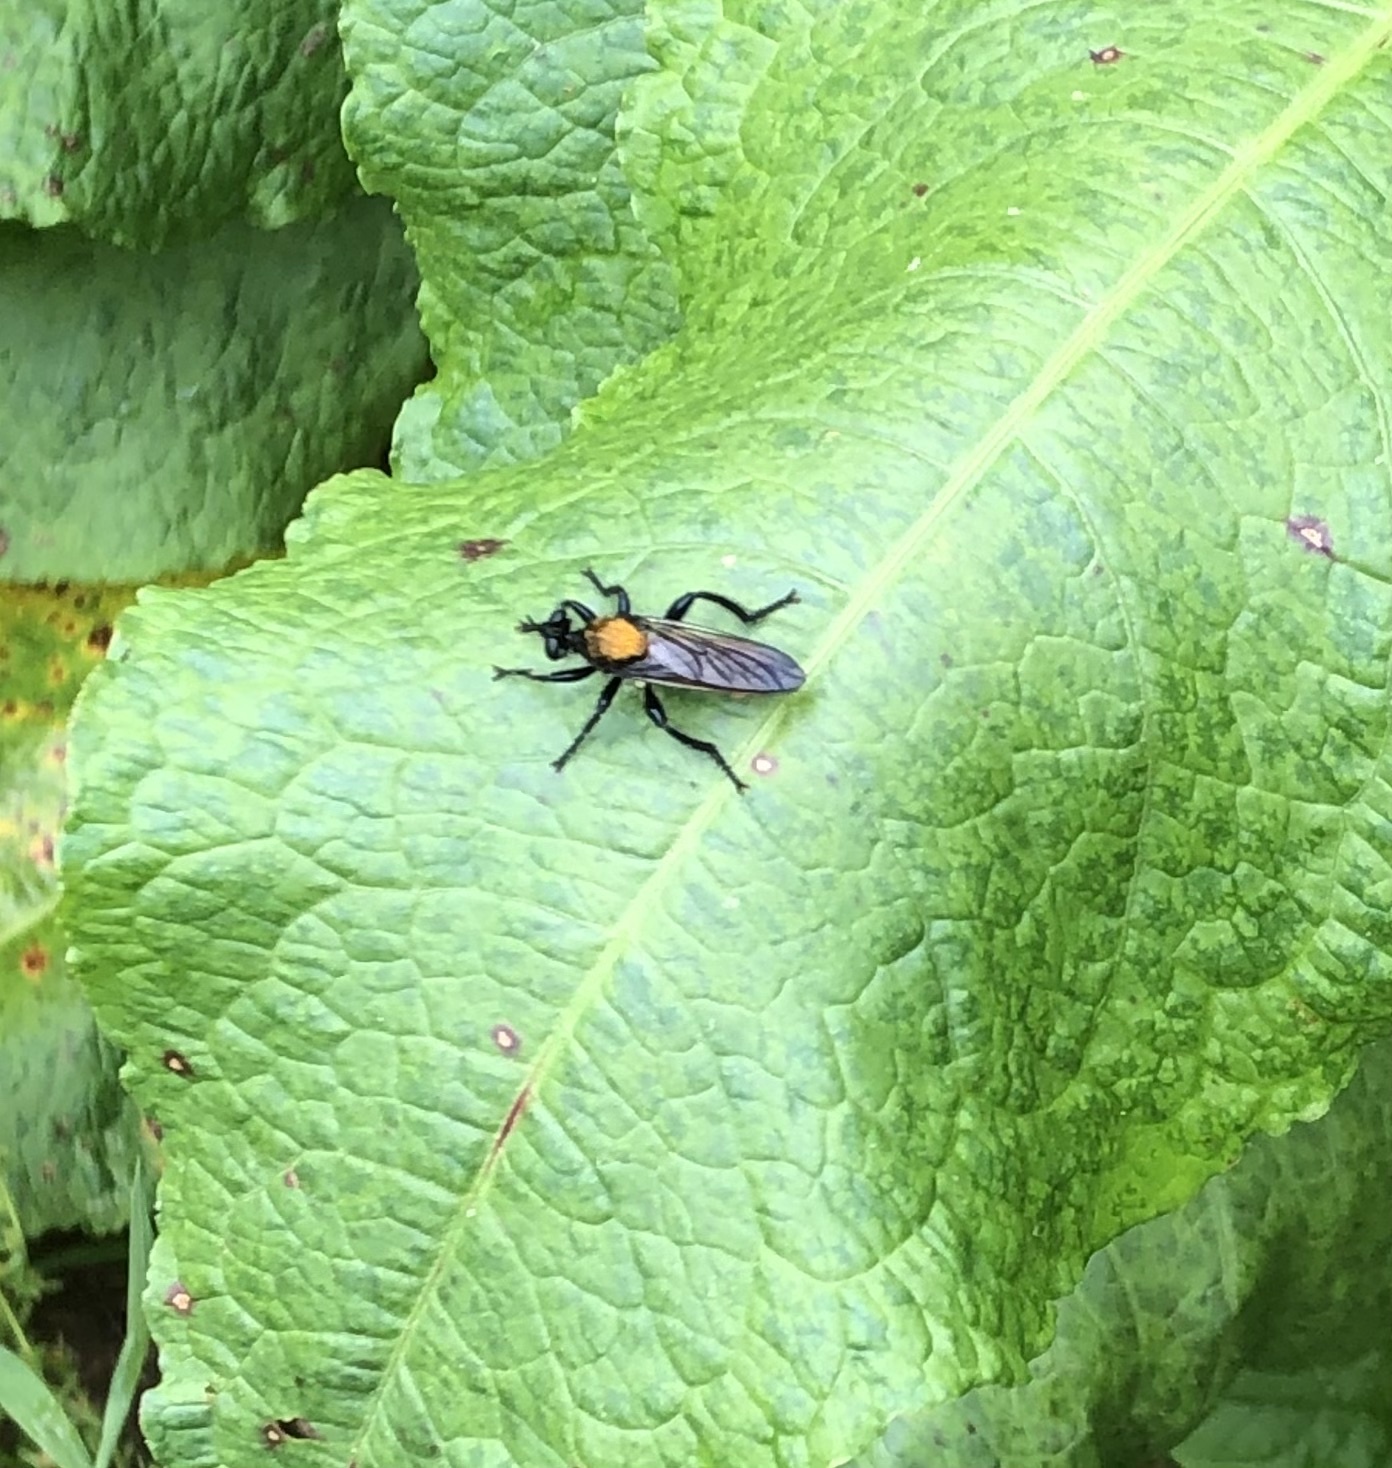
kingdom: Animalia
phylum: Arthropoda
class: Insecta
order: Diptera
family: Asilidae
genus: Laphria
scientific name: Laphria
